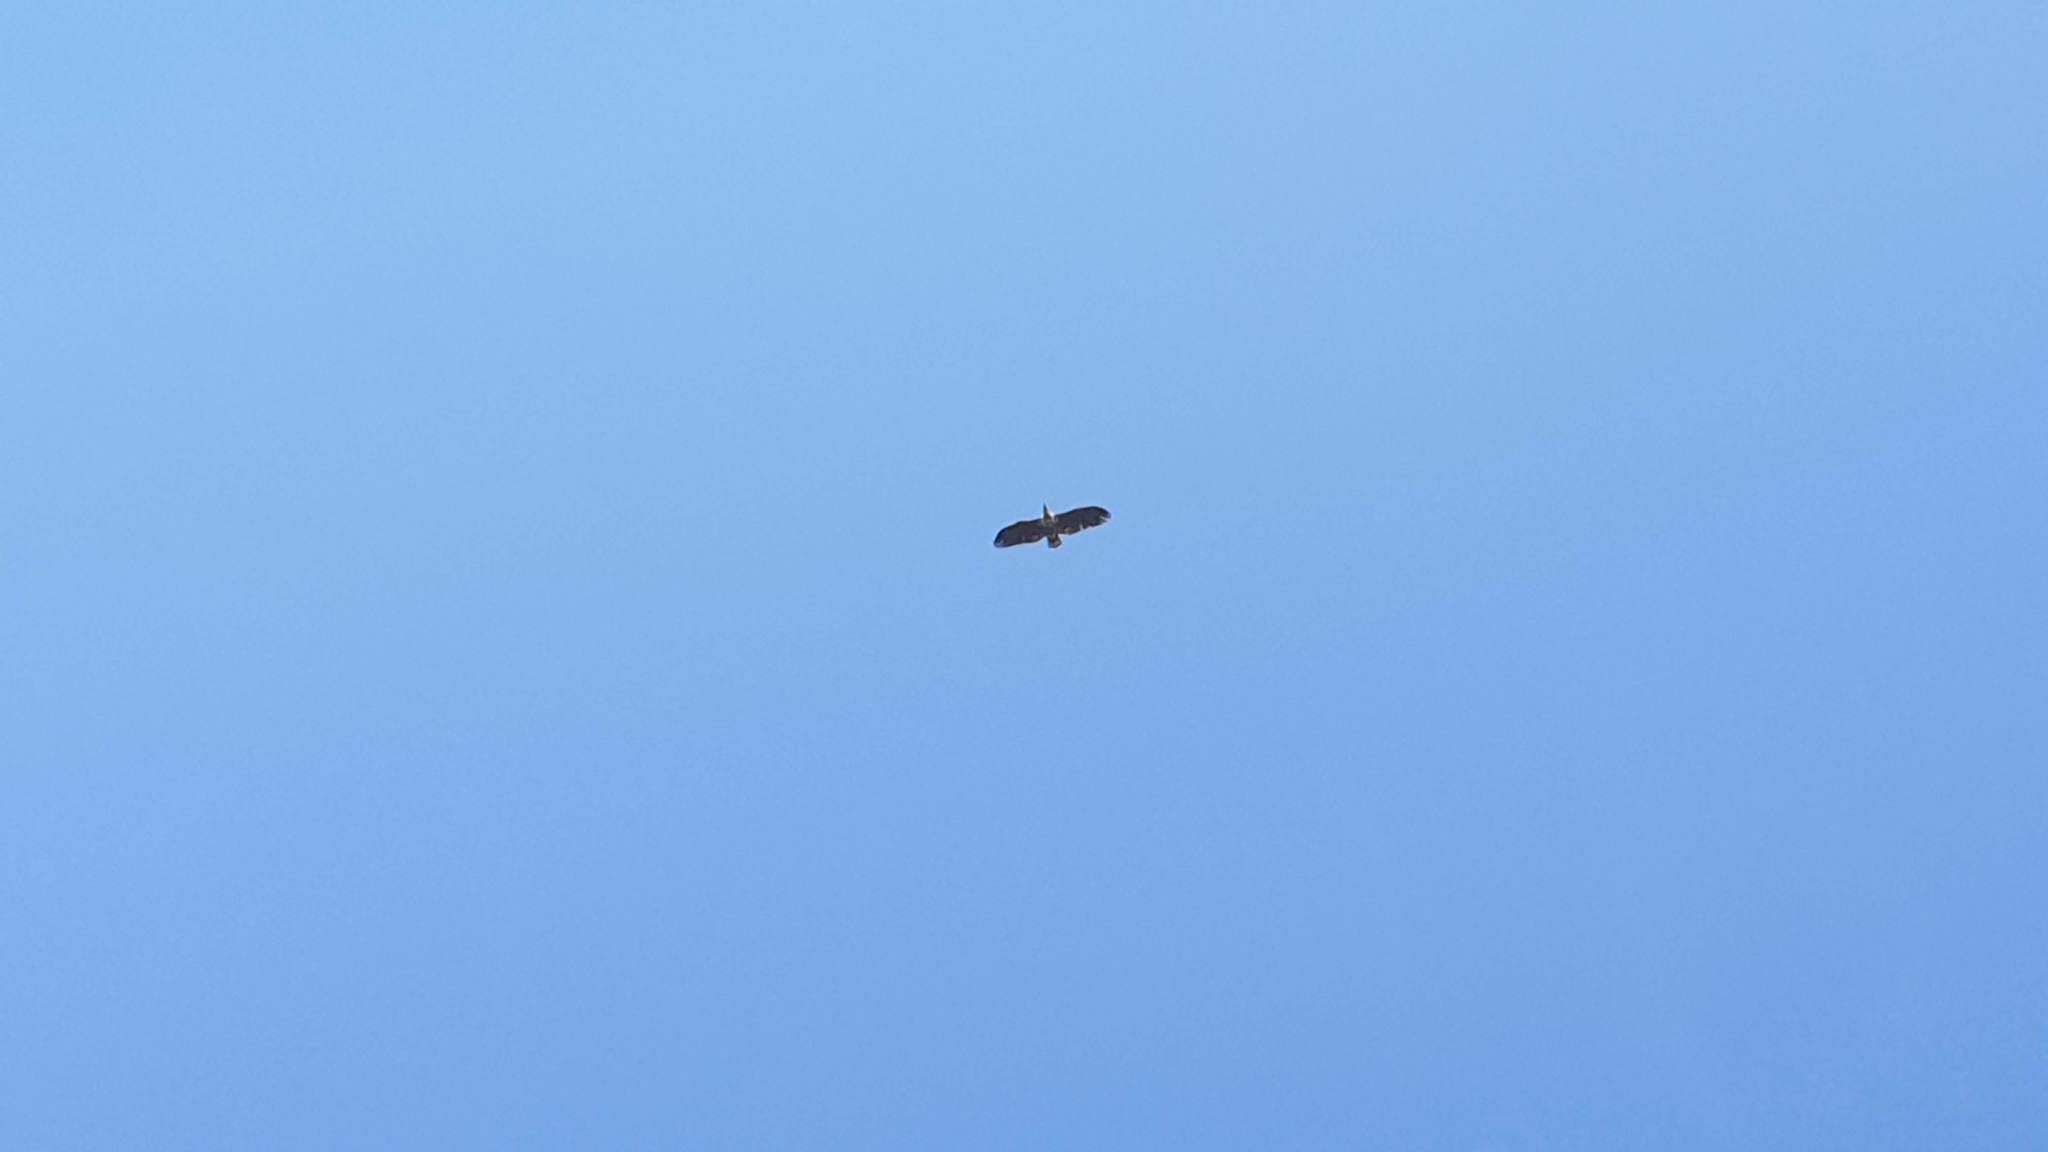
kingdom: Animalia
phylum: Chordata
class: Aves
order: Accipitriformes
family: Accipitridae
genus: Haliaeetus
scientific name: Haliaeetus albicilla
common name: White-tailed eagle
